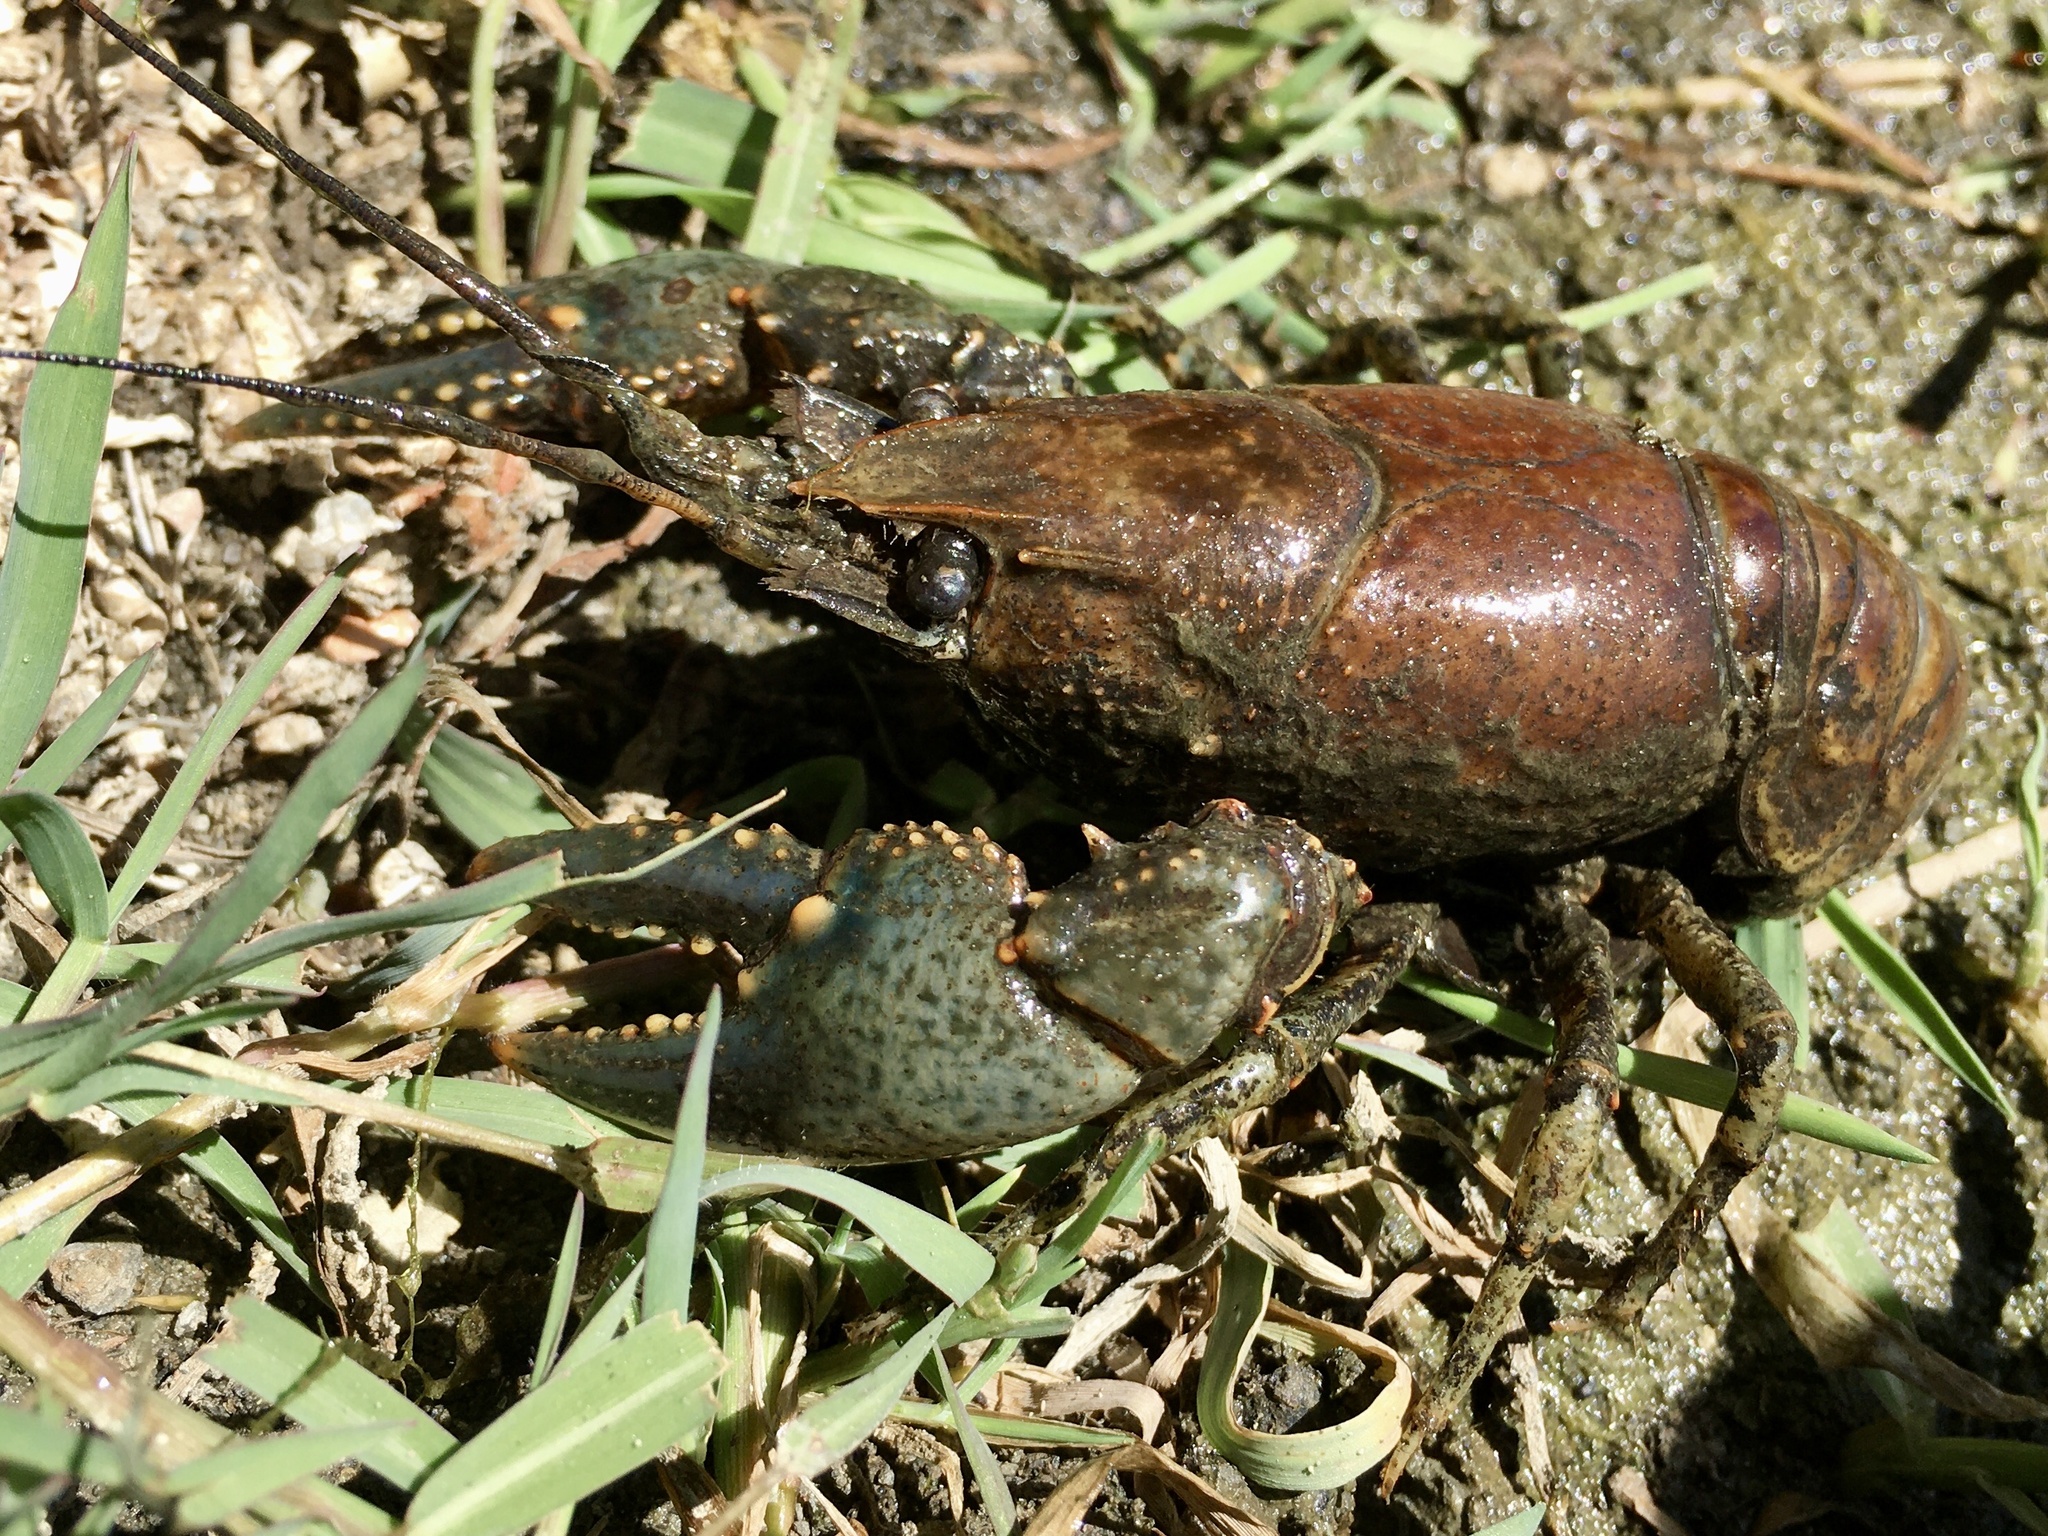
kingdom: Animalia
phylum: Arthropoda
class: Malacostraca
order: Decapoda
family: Cambaridae
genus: Faxonius
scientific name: Faxonius virilis
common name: Virile crayfish
